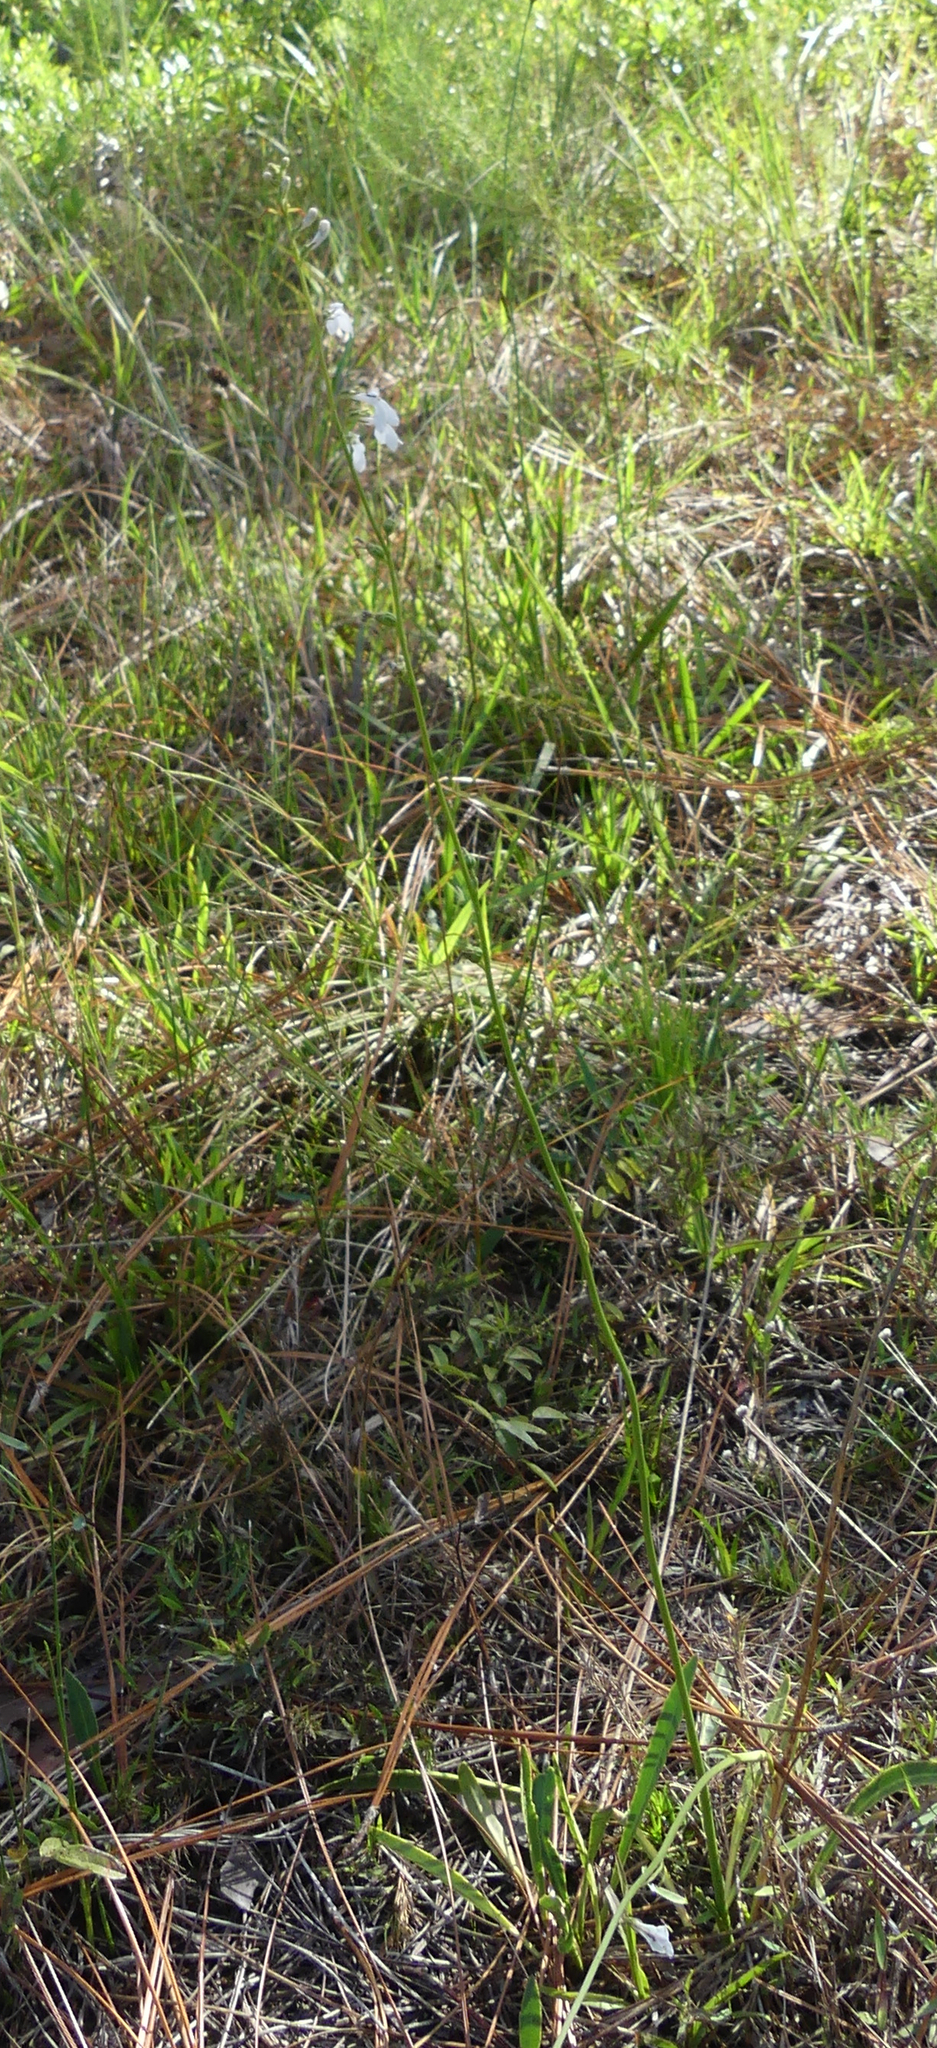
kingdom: Plantae
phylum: Tracheophyta
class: Magnoliopsida
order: Asterales
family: Campanulaceae
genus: Lobelia
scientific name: Lobelia paludosa
